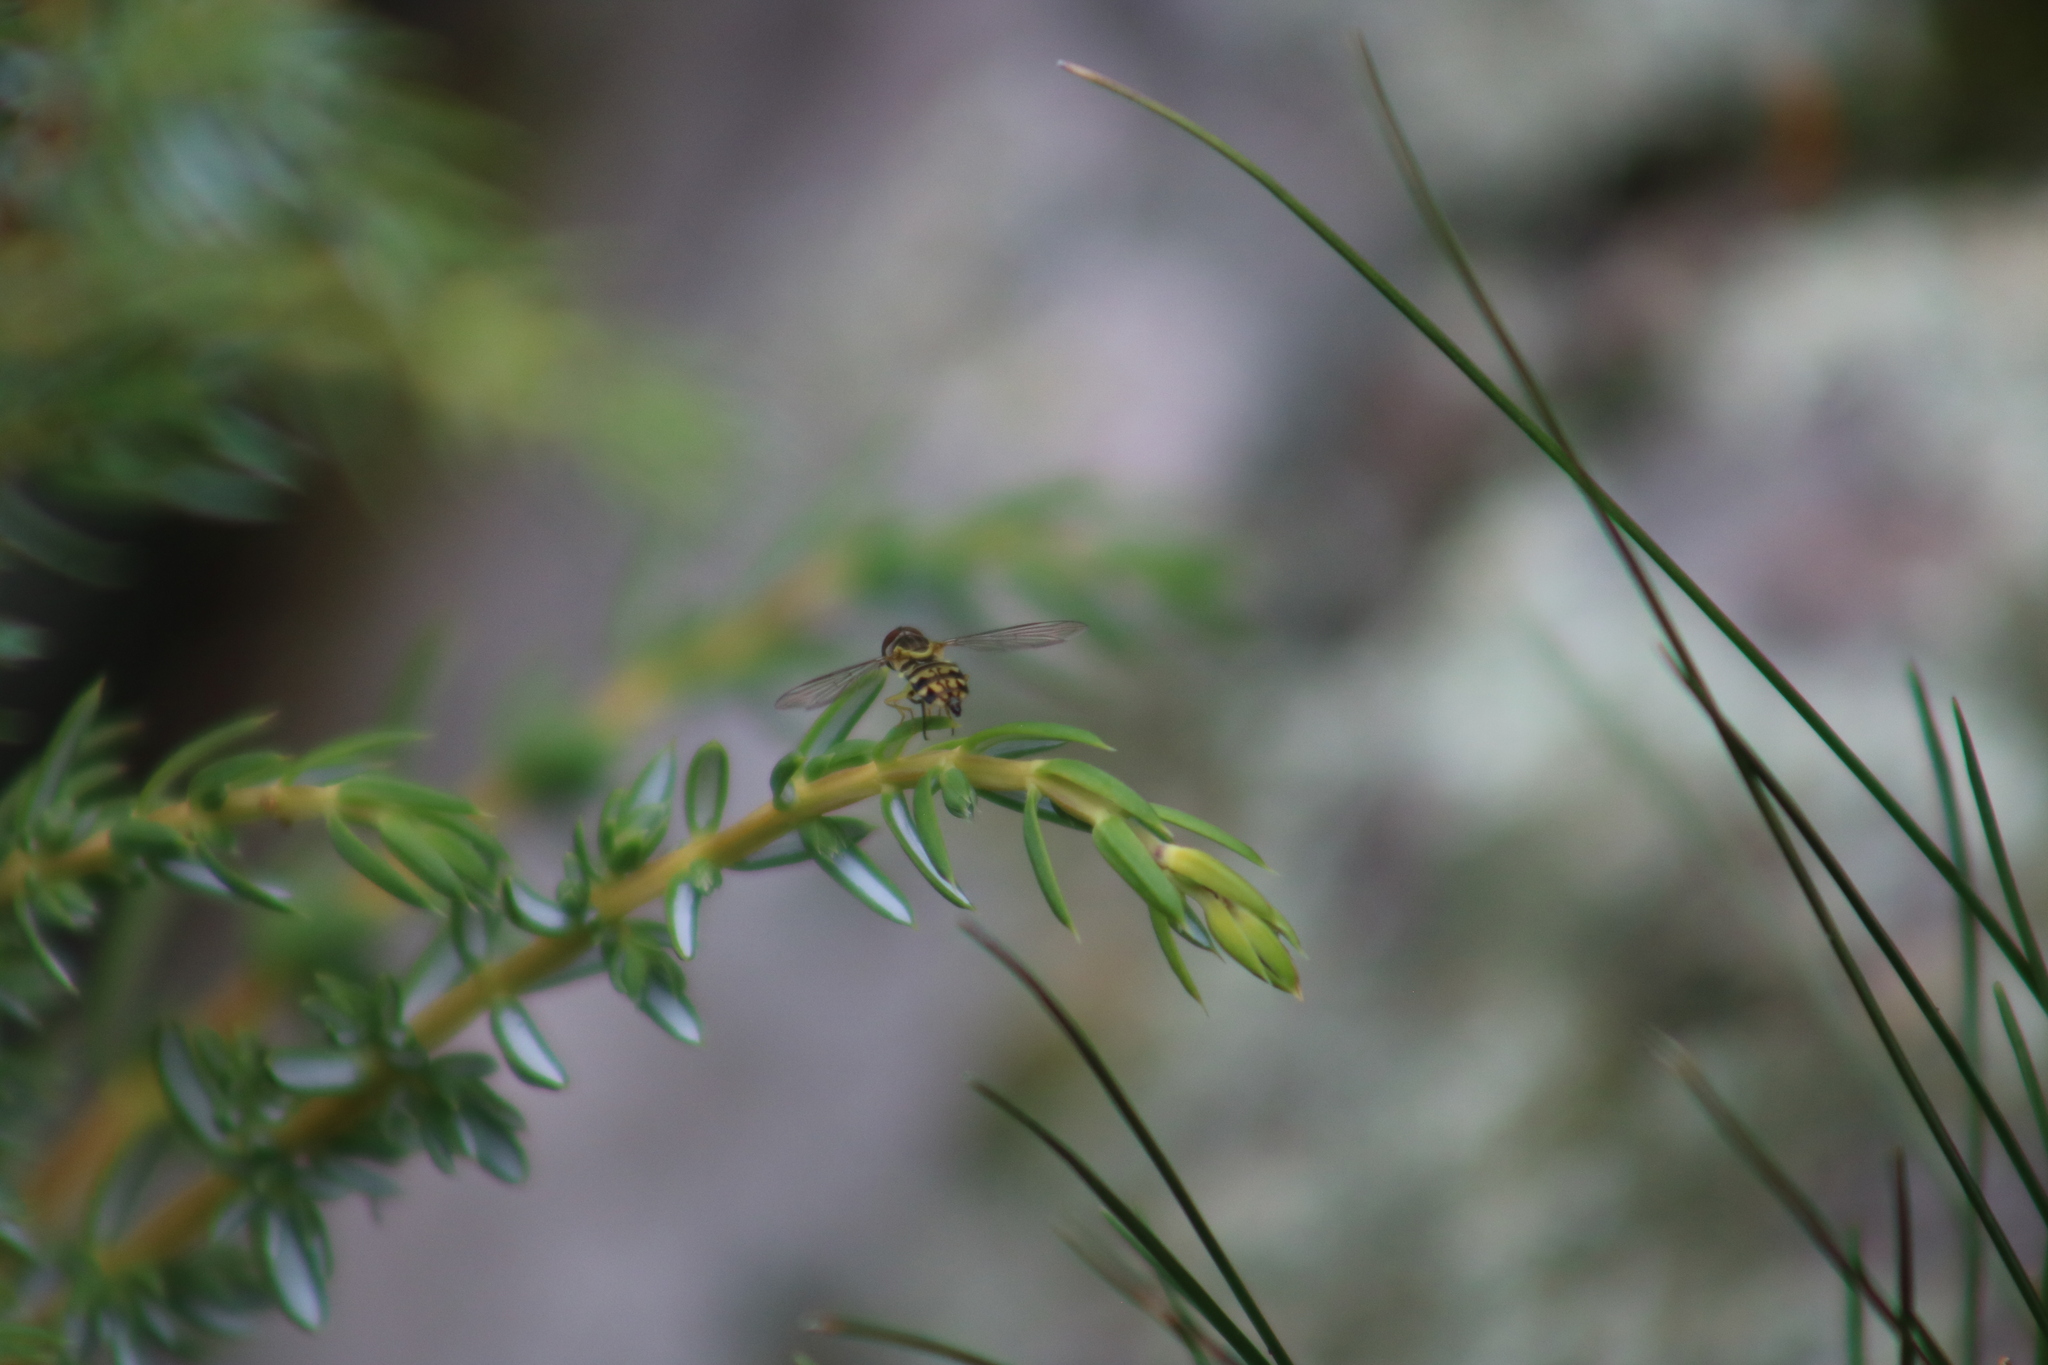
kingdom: Animalia
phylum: Arthropoda
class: Insecta
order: Diptera
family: Syrphidae
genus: Toxomerus
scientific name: Toxomerus geminatus
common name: Eastern calligrapher
